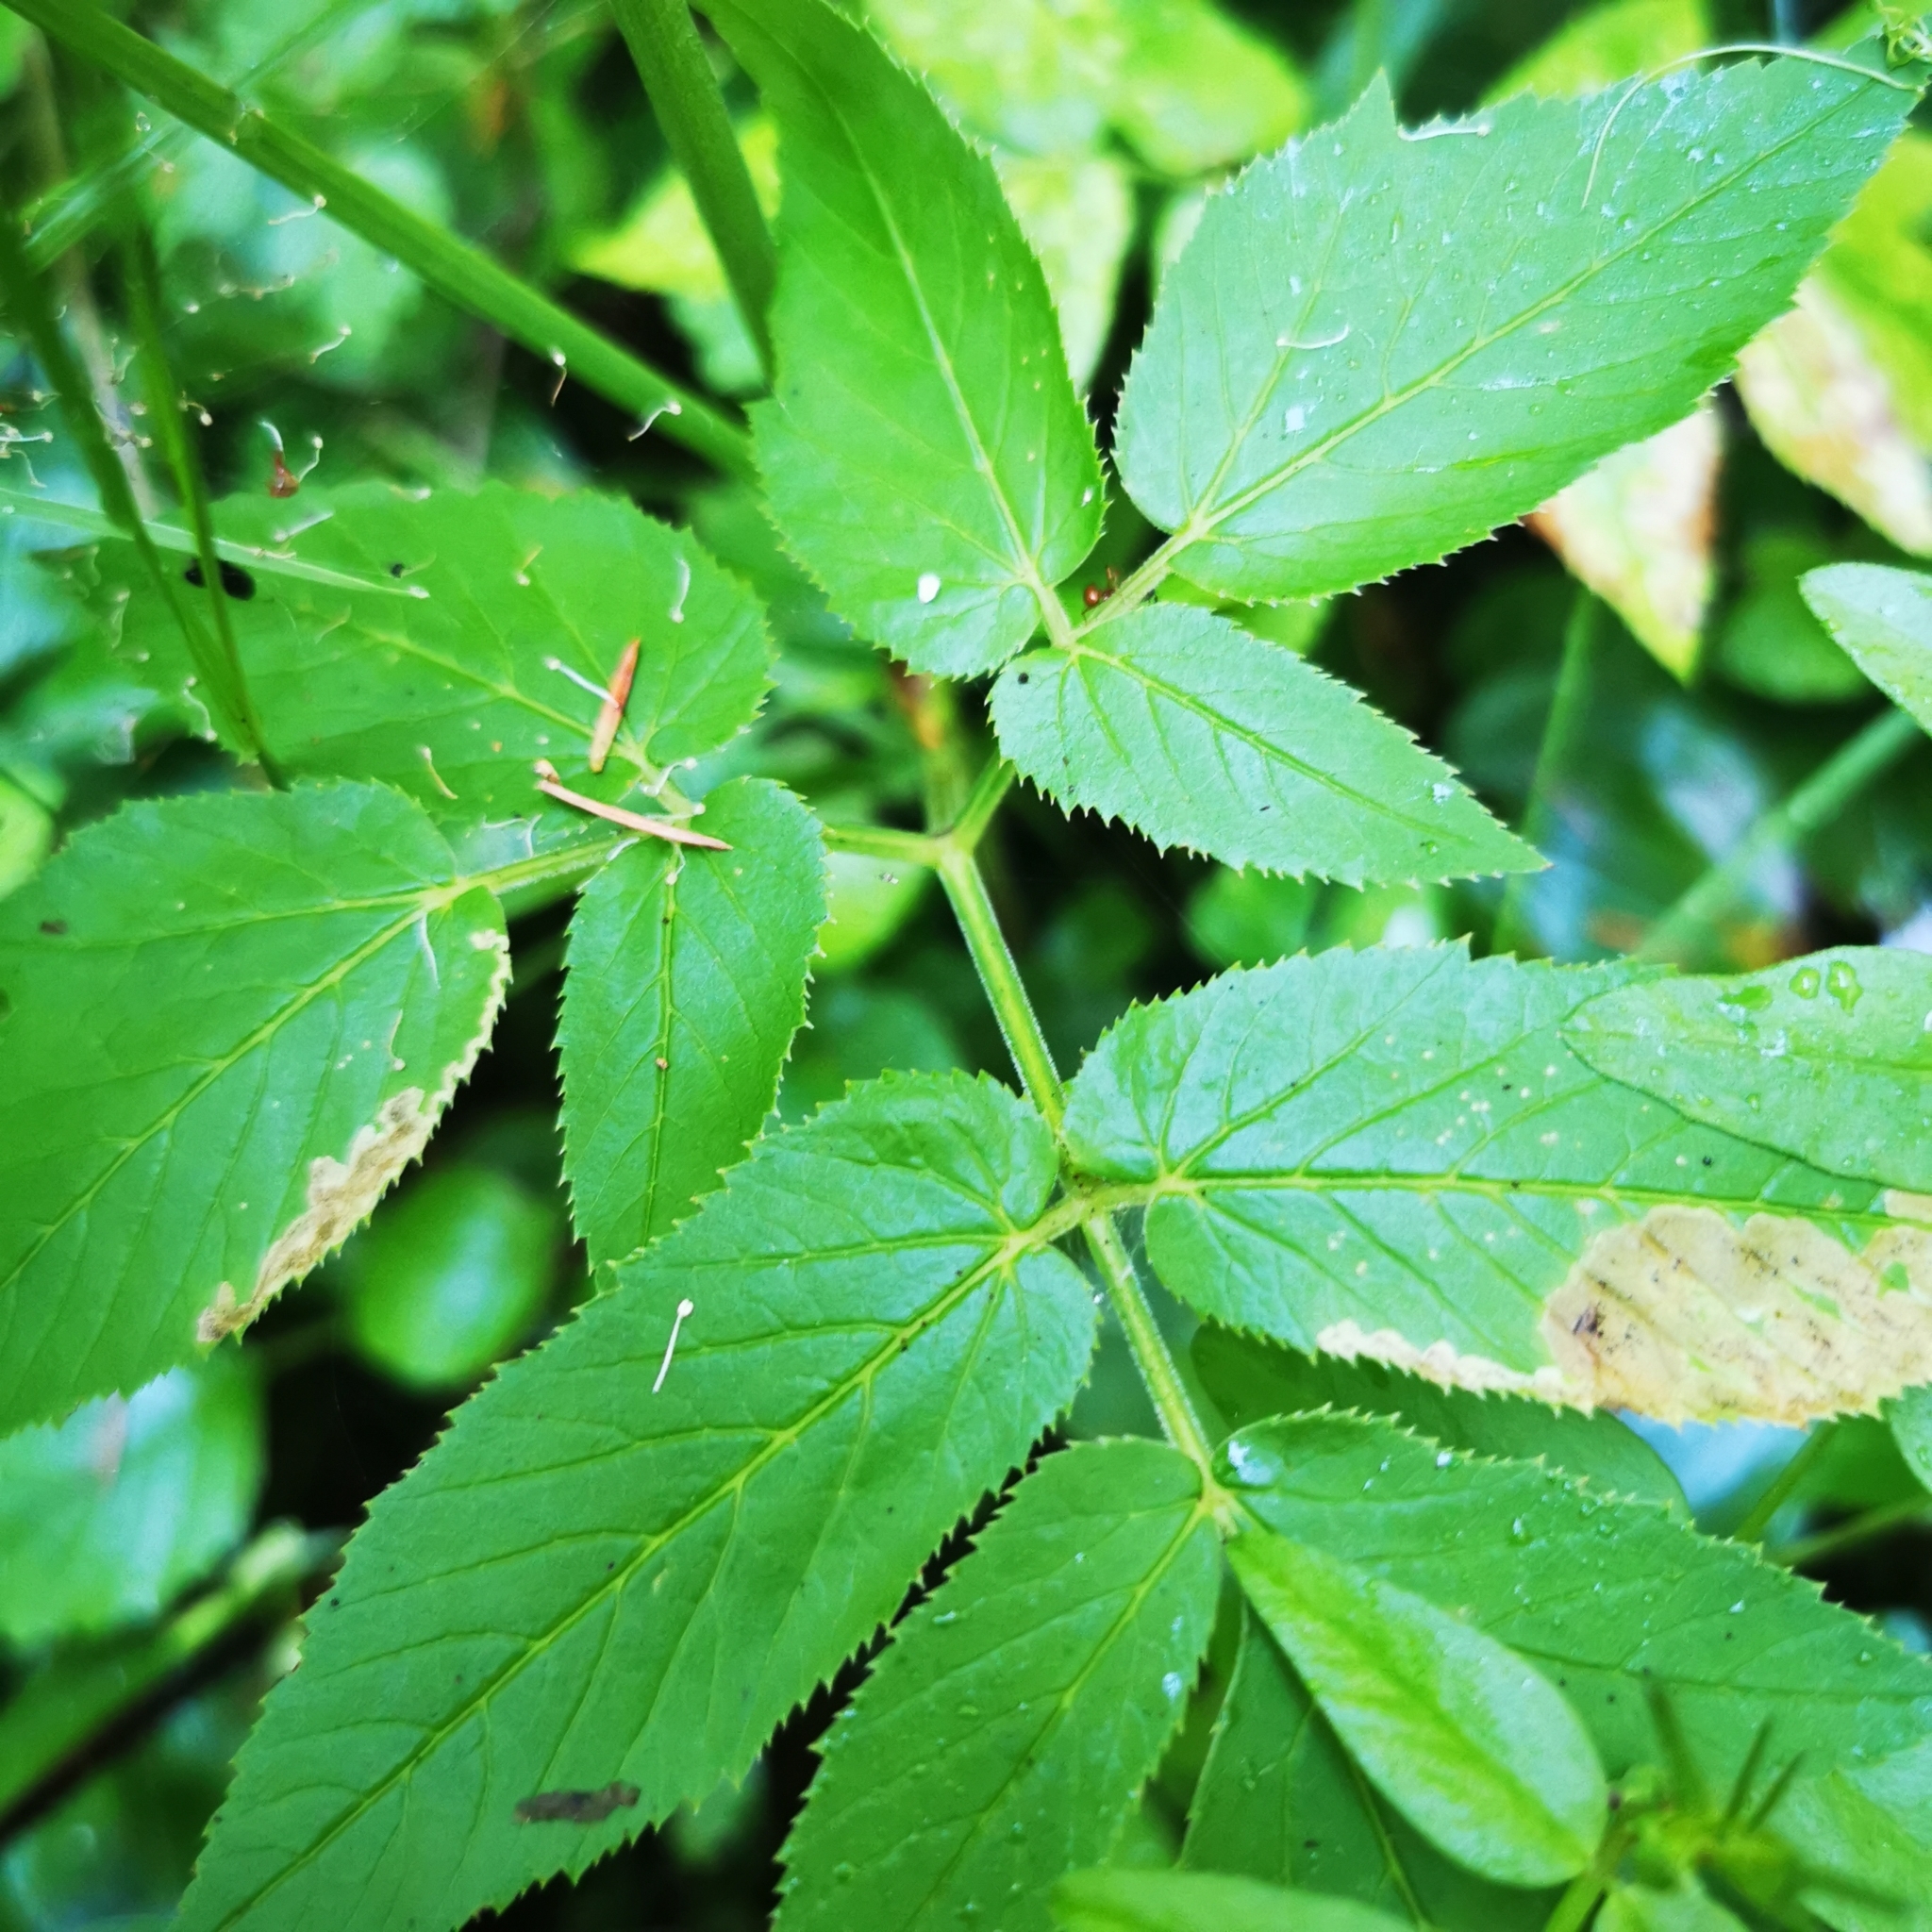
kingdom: Plantae
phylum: Tracheophyta
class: Magnoliopsida
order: Apiales
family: Apiaceae
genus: Aegopodium
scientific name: Aegopodium podagraria
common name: Ground-elder
